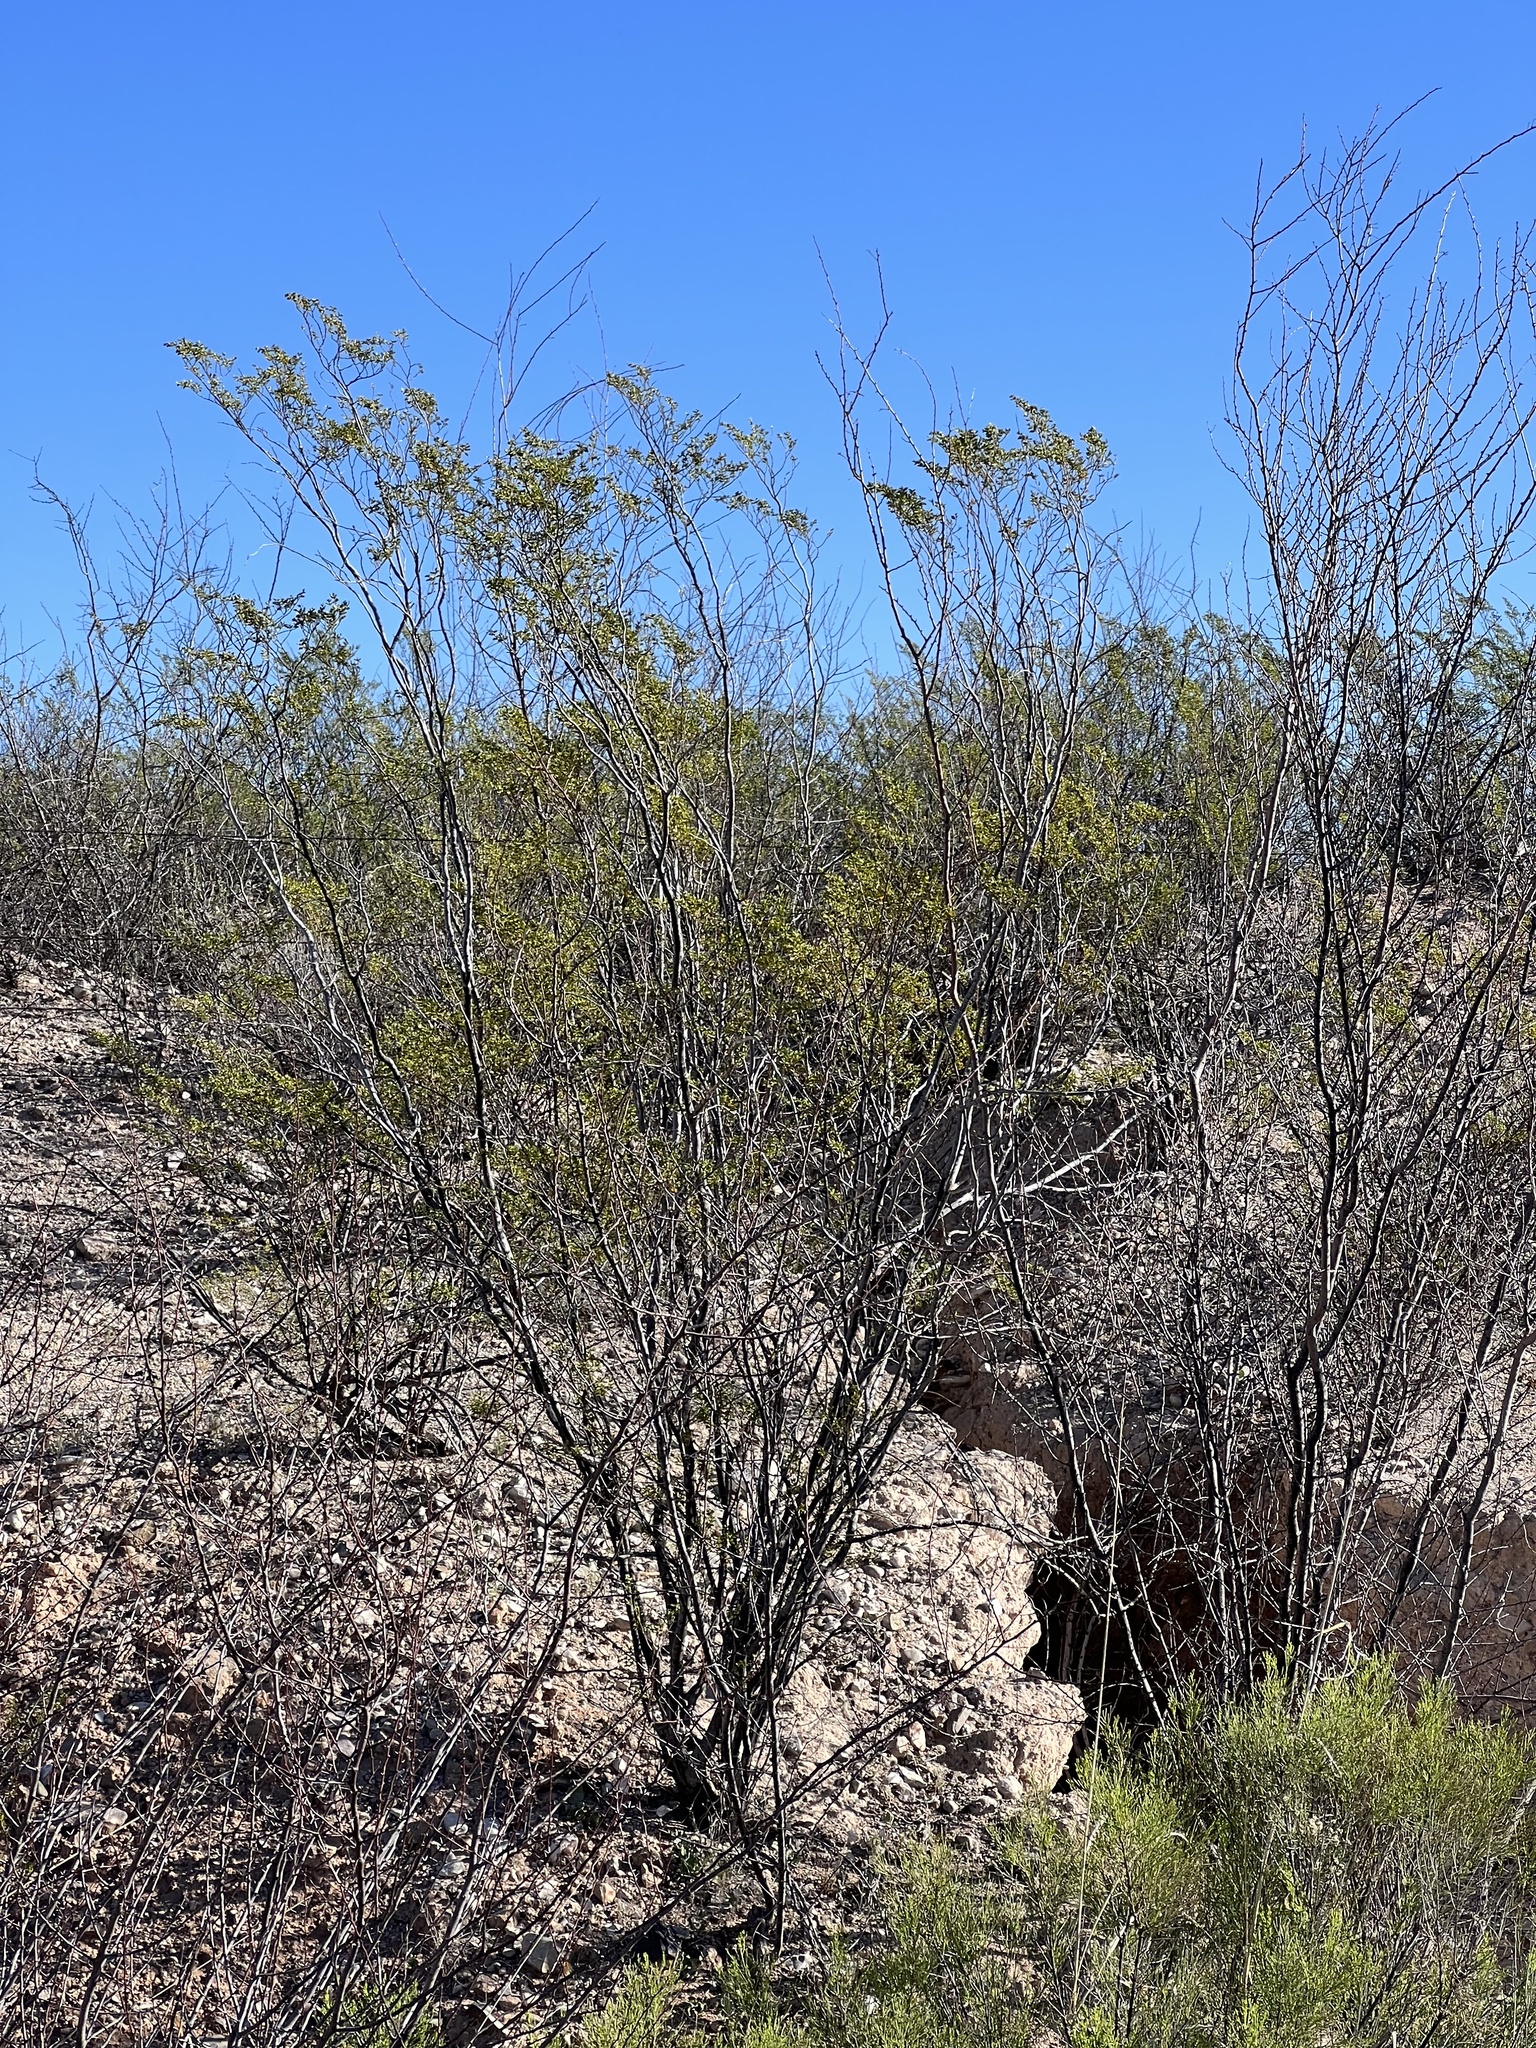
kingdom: Plantae
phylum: Tracheophyta
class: Magnoliopsida
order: Zygophyllales
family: Zygophyllaceae
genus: Larrea
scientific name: Larrea tridentata
